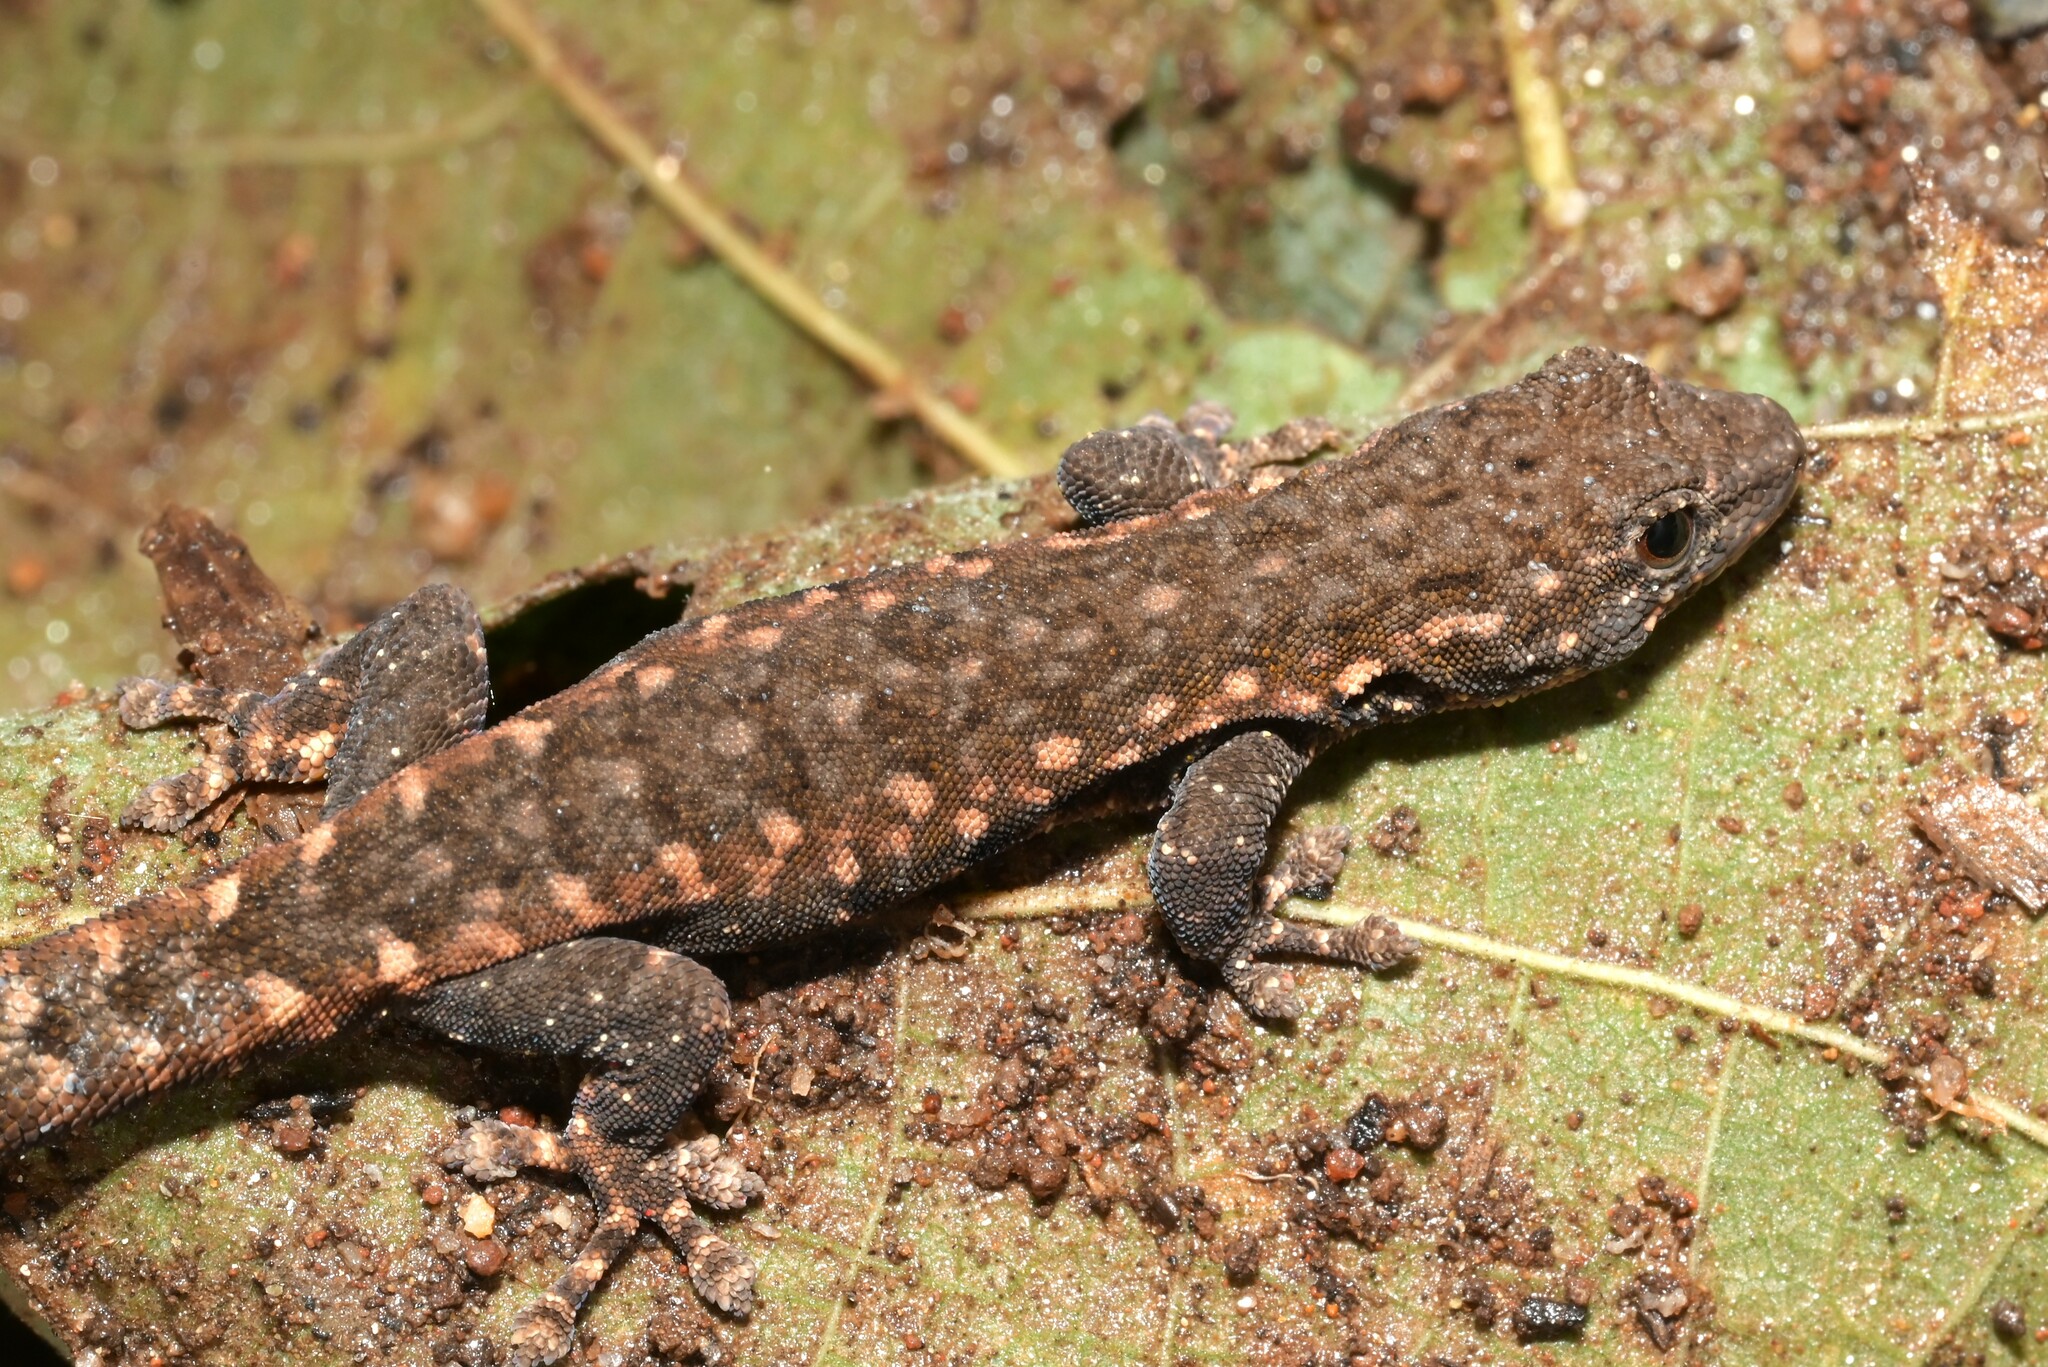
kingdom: Animalia
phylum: Chordata
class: Squamata
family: Gekkonidae
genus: Lygodactylus
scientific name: Lygodactylus angularis
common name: Angulate dwarf gecko
